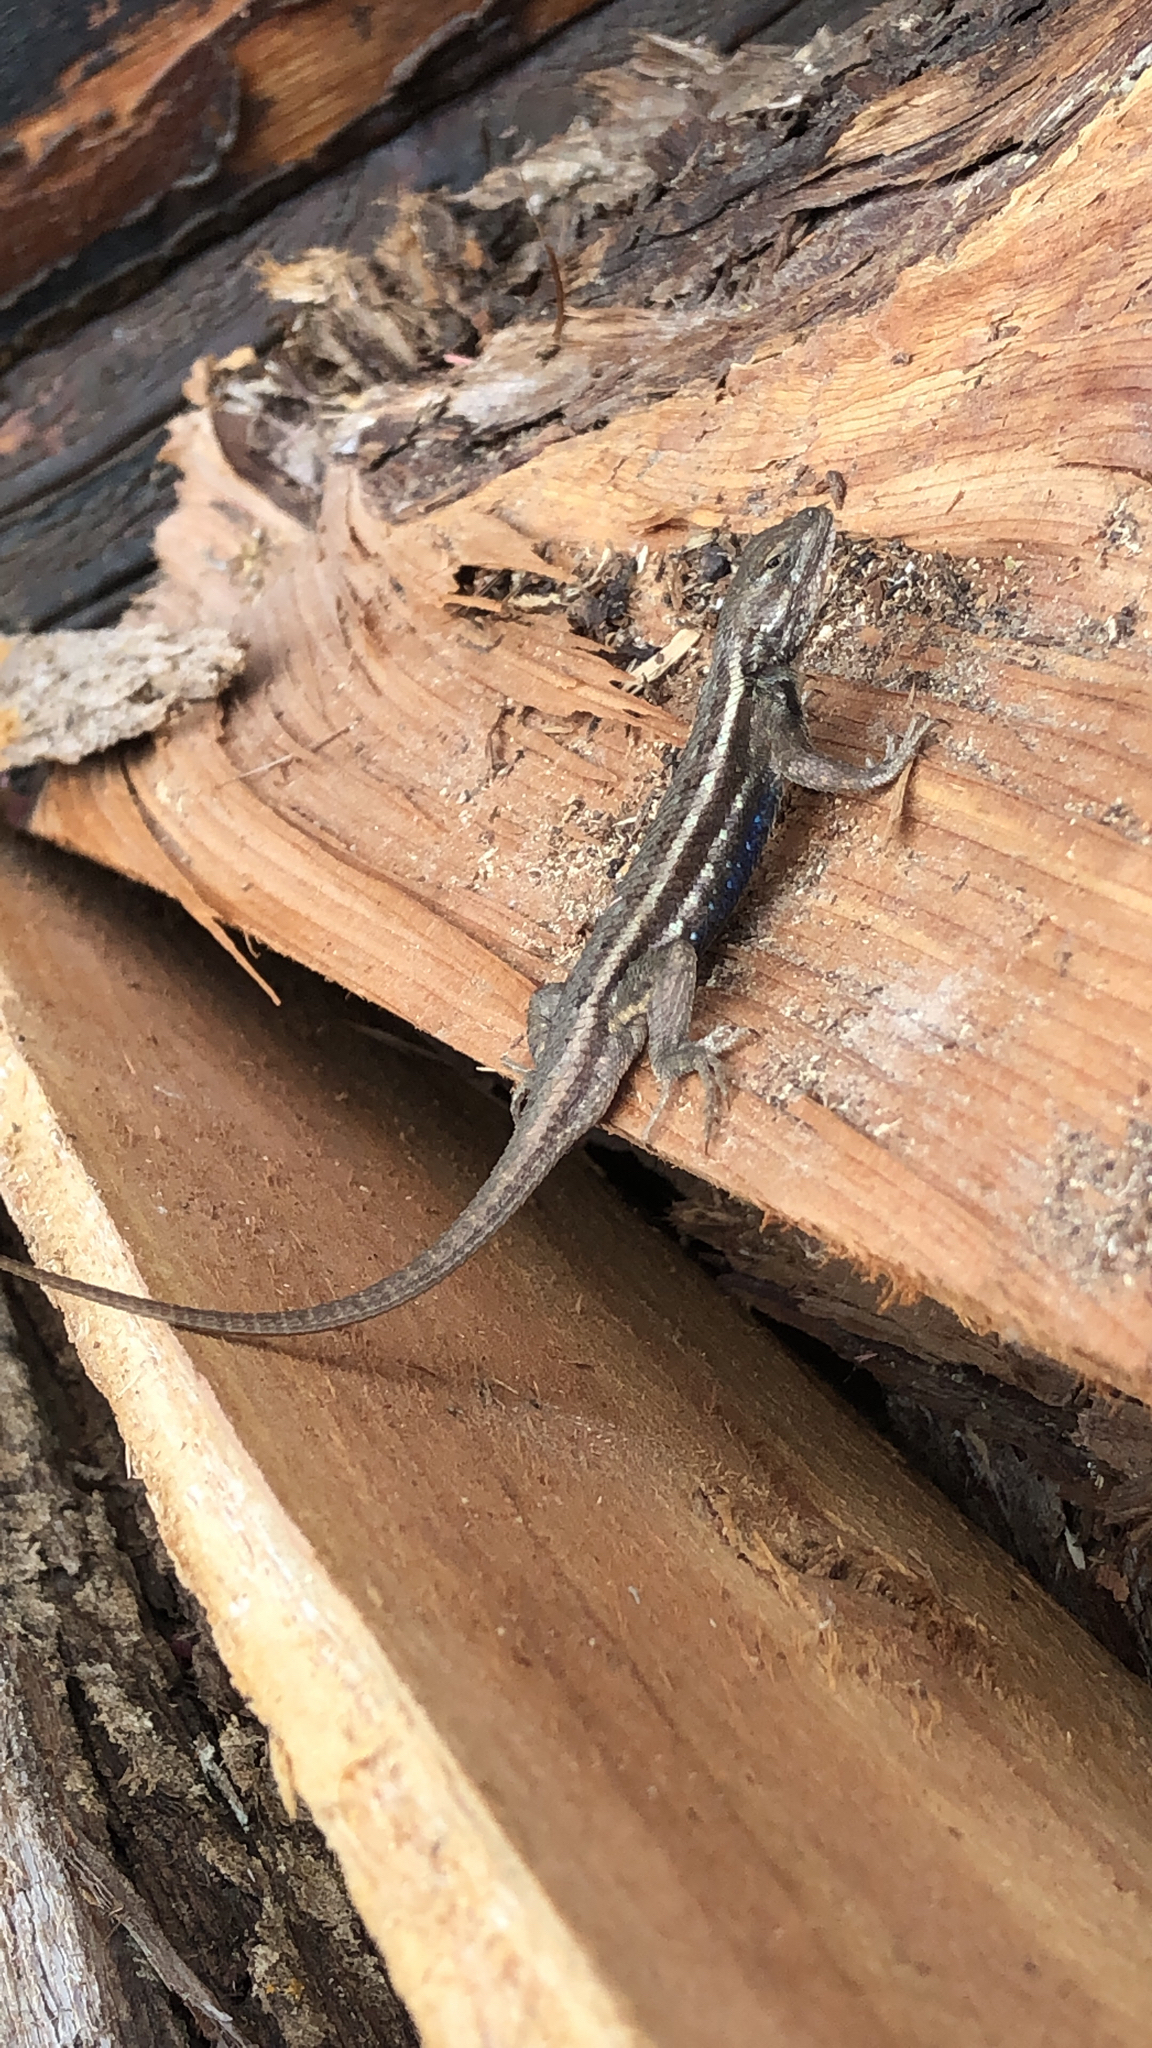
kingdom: Animalia
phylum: Chordata
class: Squamata
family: Phrynosomatidae
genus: Sceloporus
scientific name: Sceloporus consobrinus
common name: Southern prairie lizard
